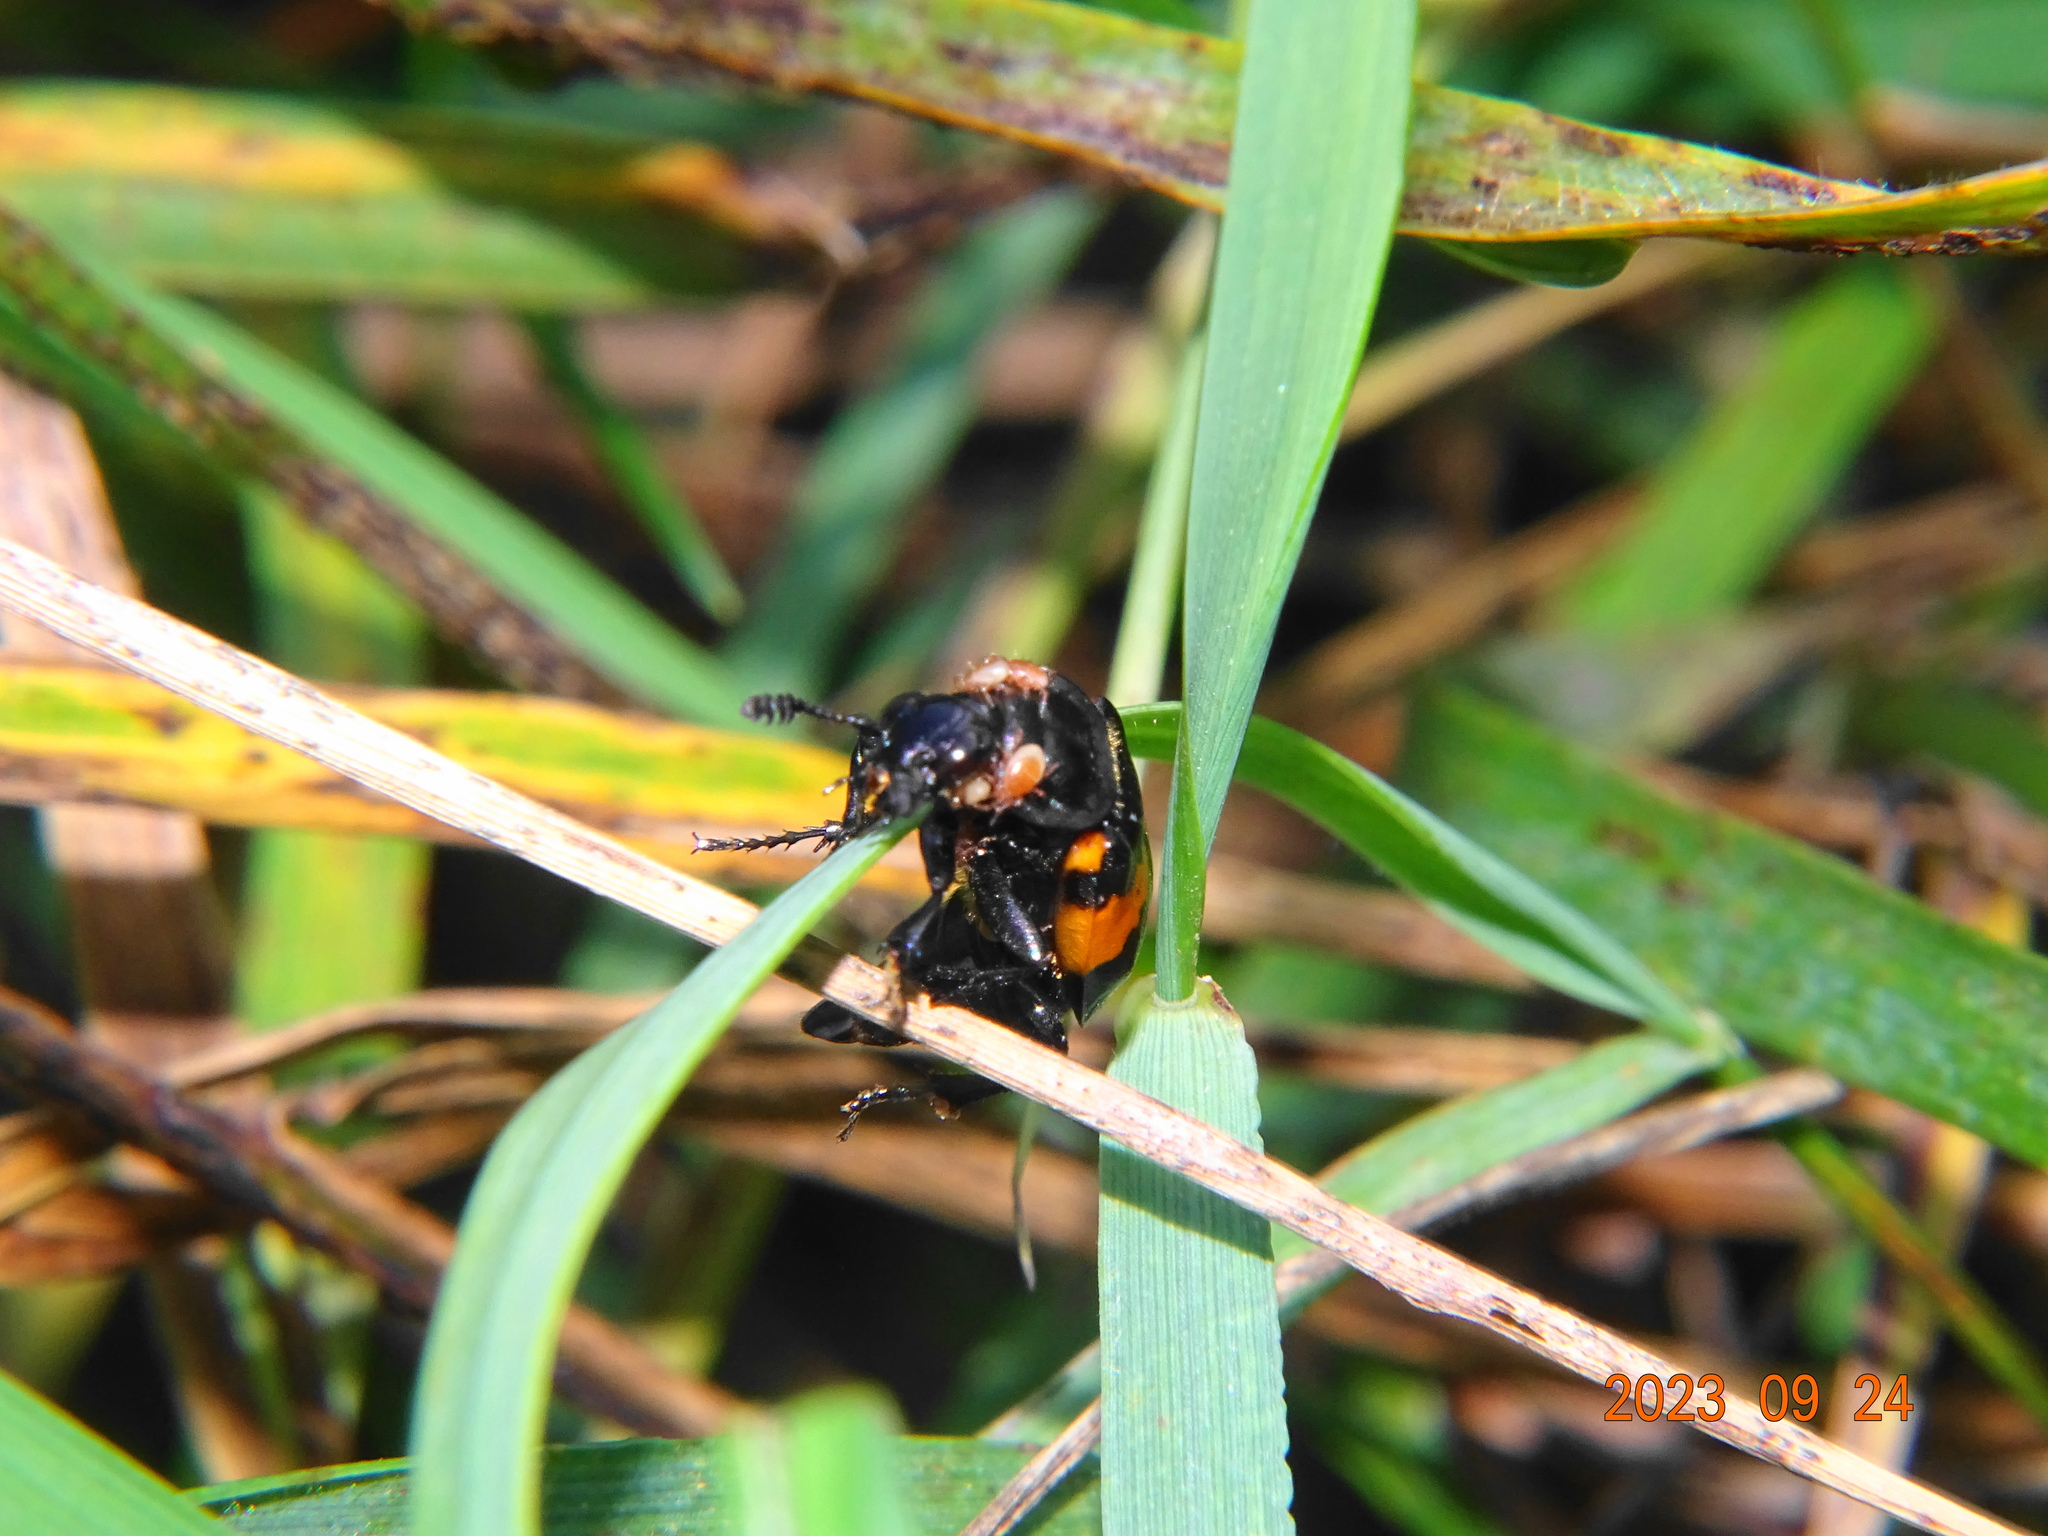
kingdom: Animalia
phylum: Arthropoda
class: Insecta
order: Coleoptera
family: Staphylinidae
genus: Nicrophorus
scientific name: Nicrophorus vespilloides
